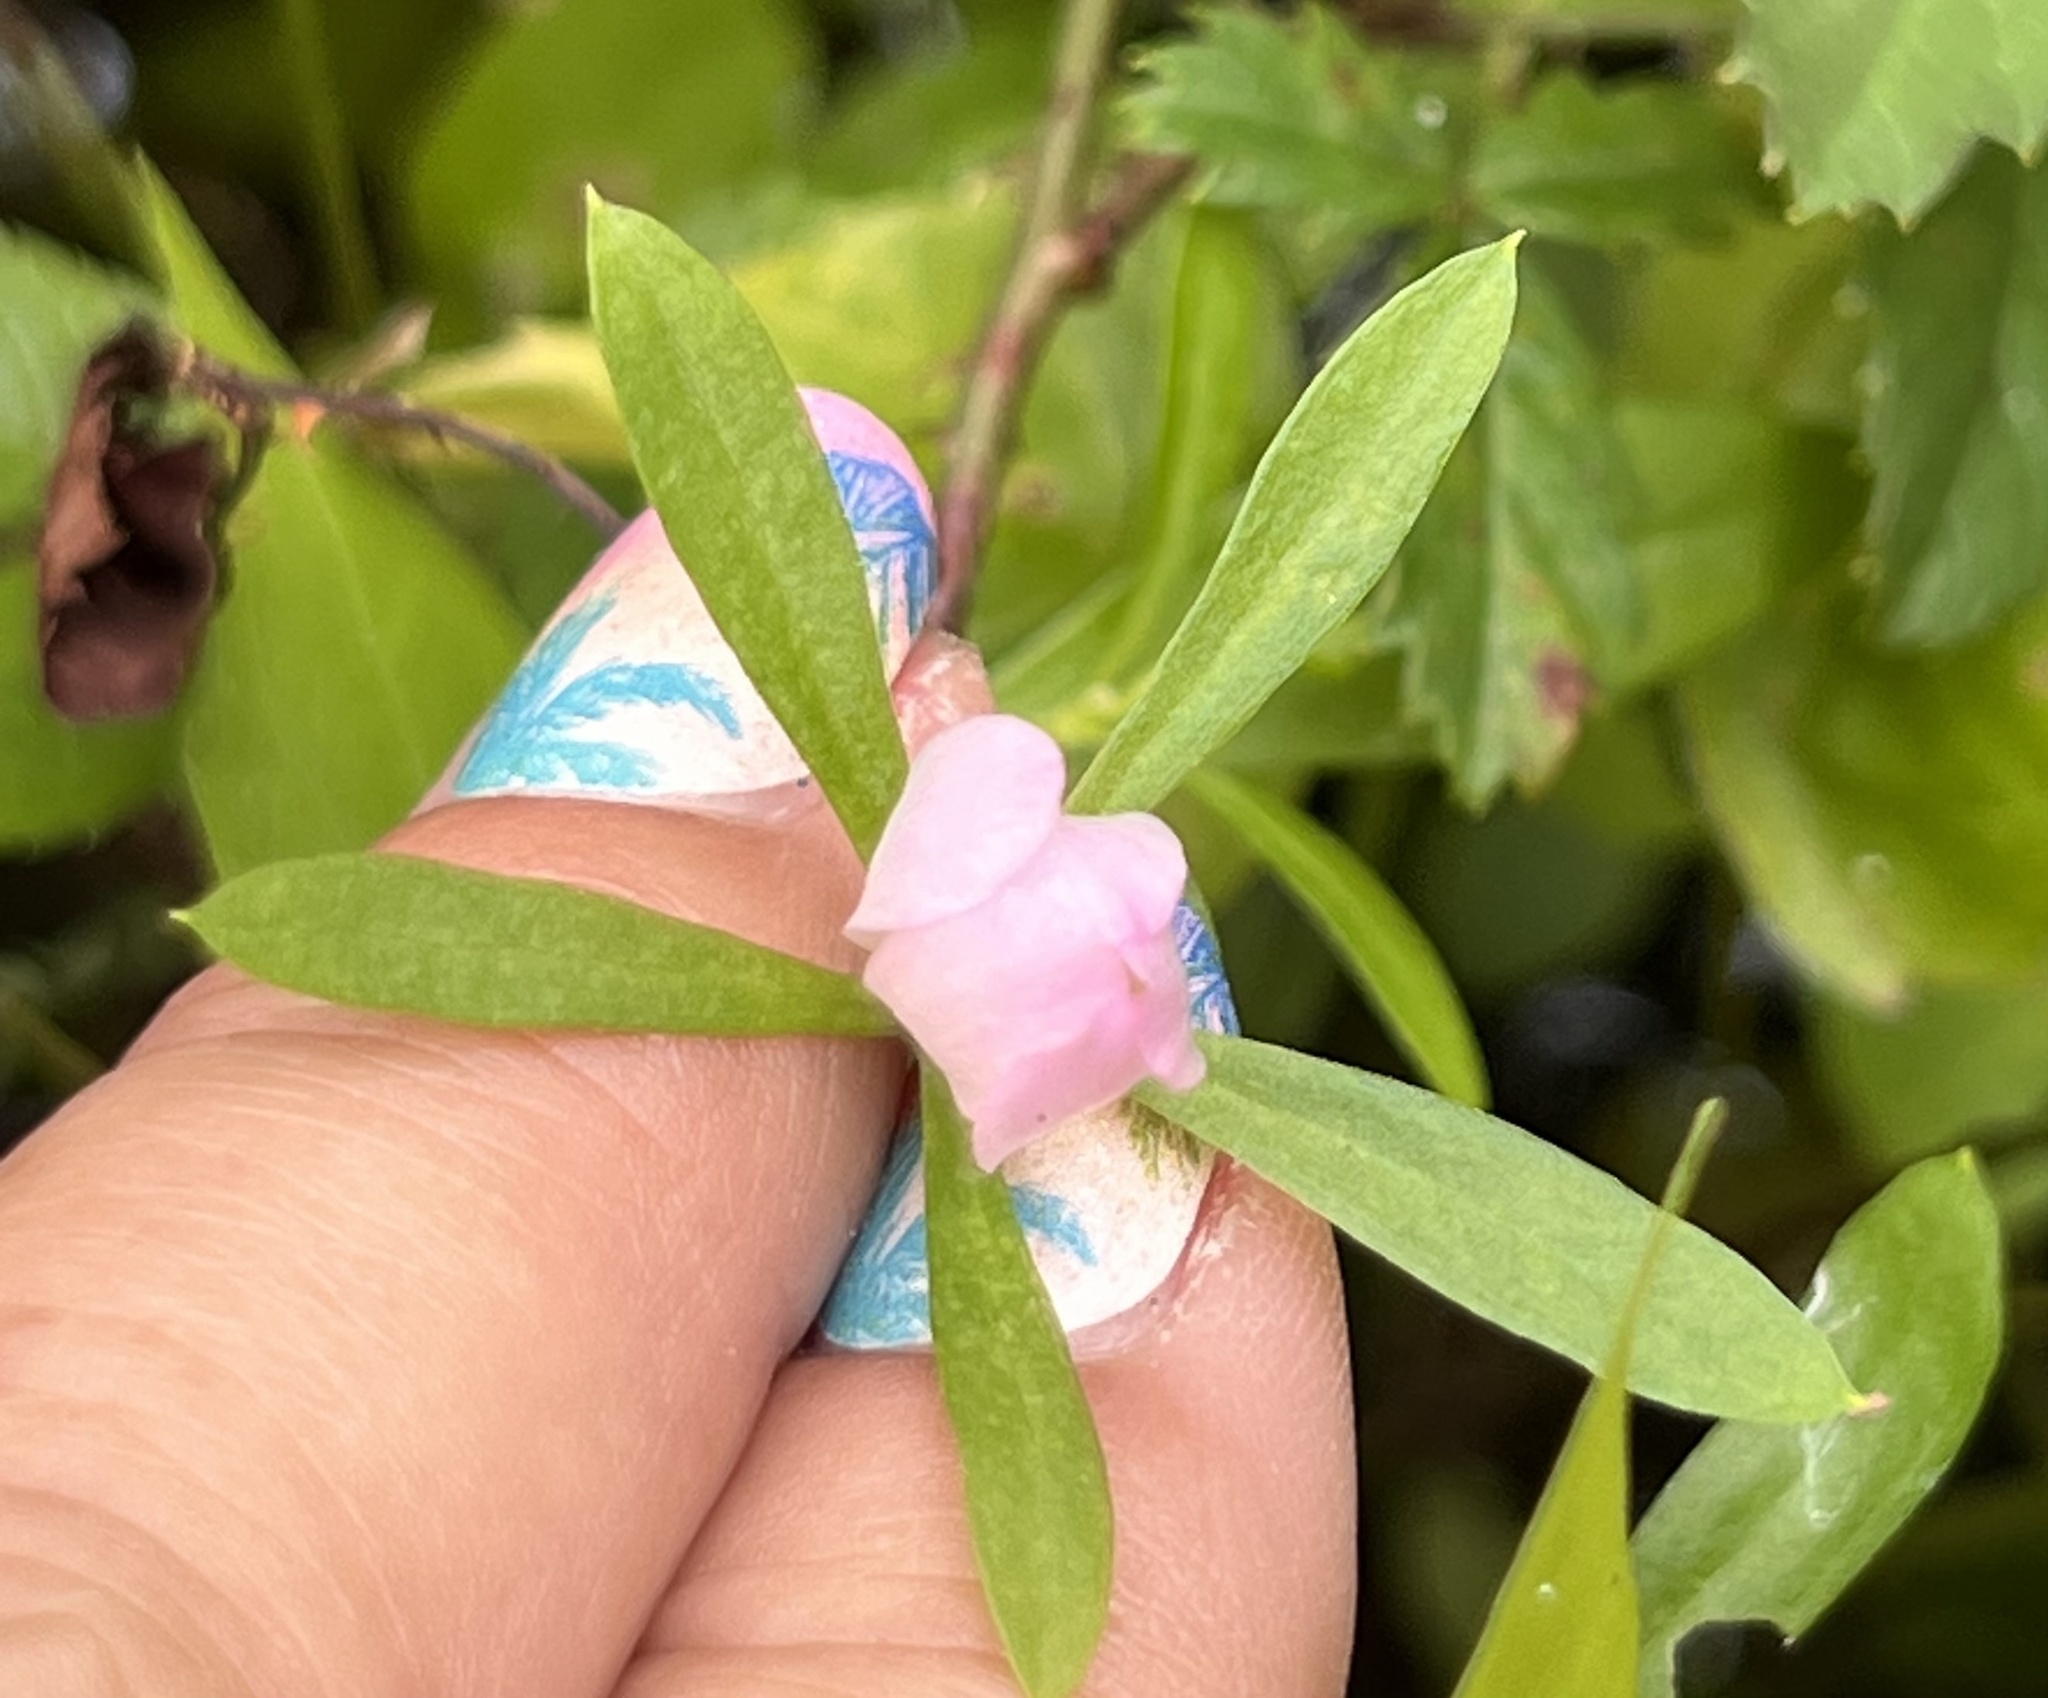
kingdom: Plantae
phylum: Tracheophyta
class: Magnoliopsida
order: Gentianales
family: Gentianaceae
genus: Sabatia
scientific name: Sabatia calycina
